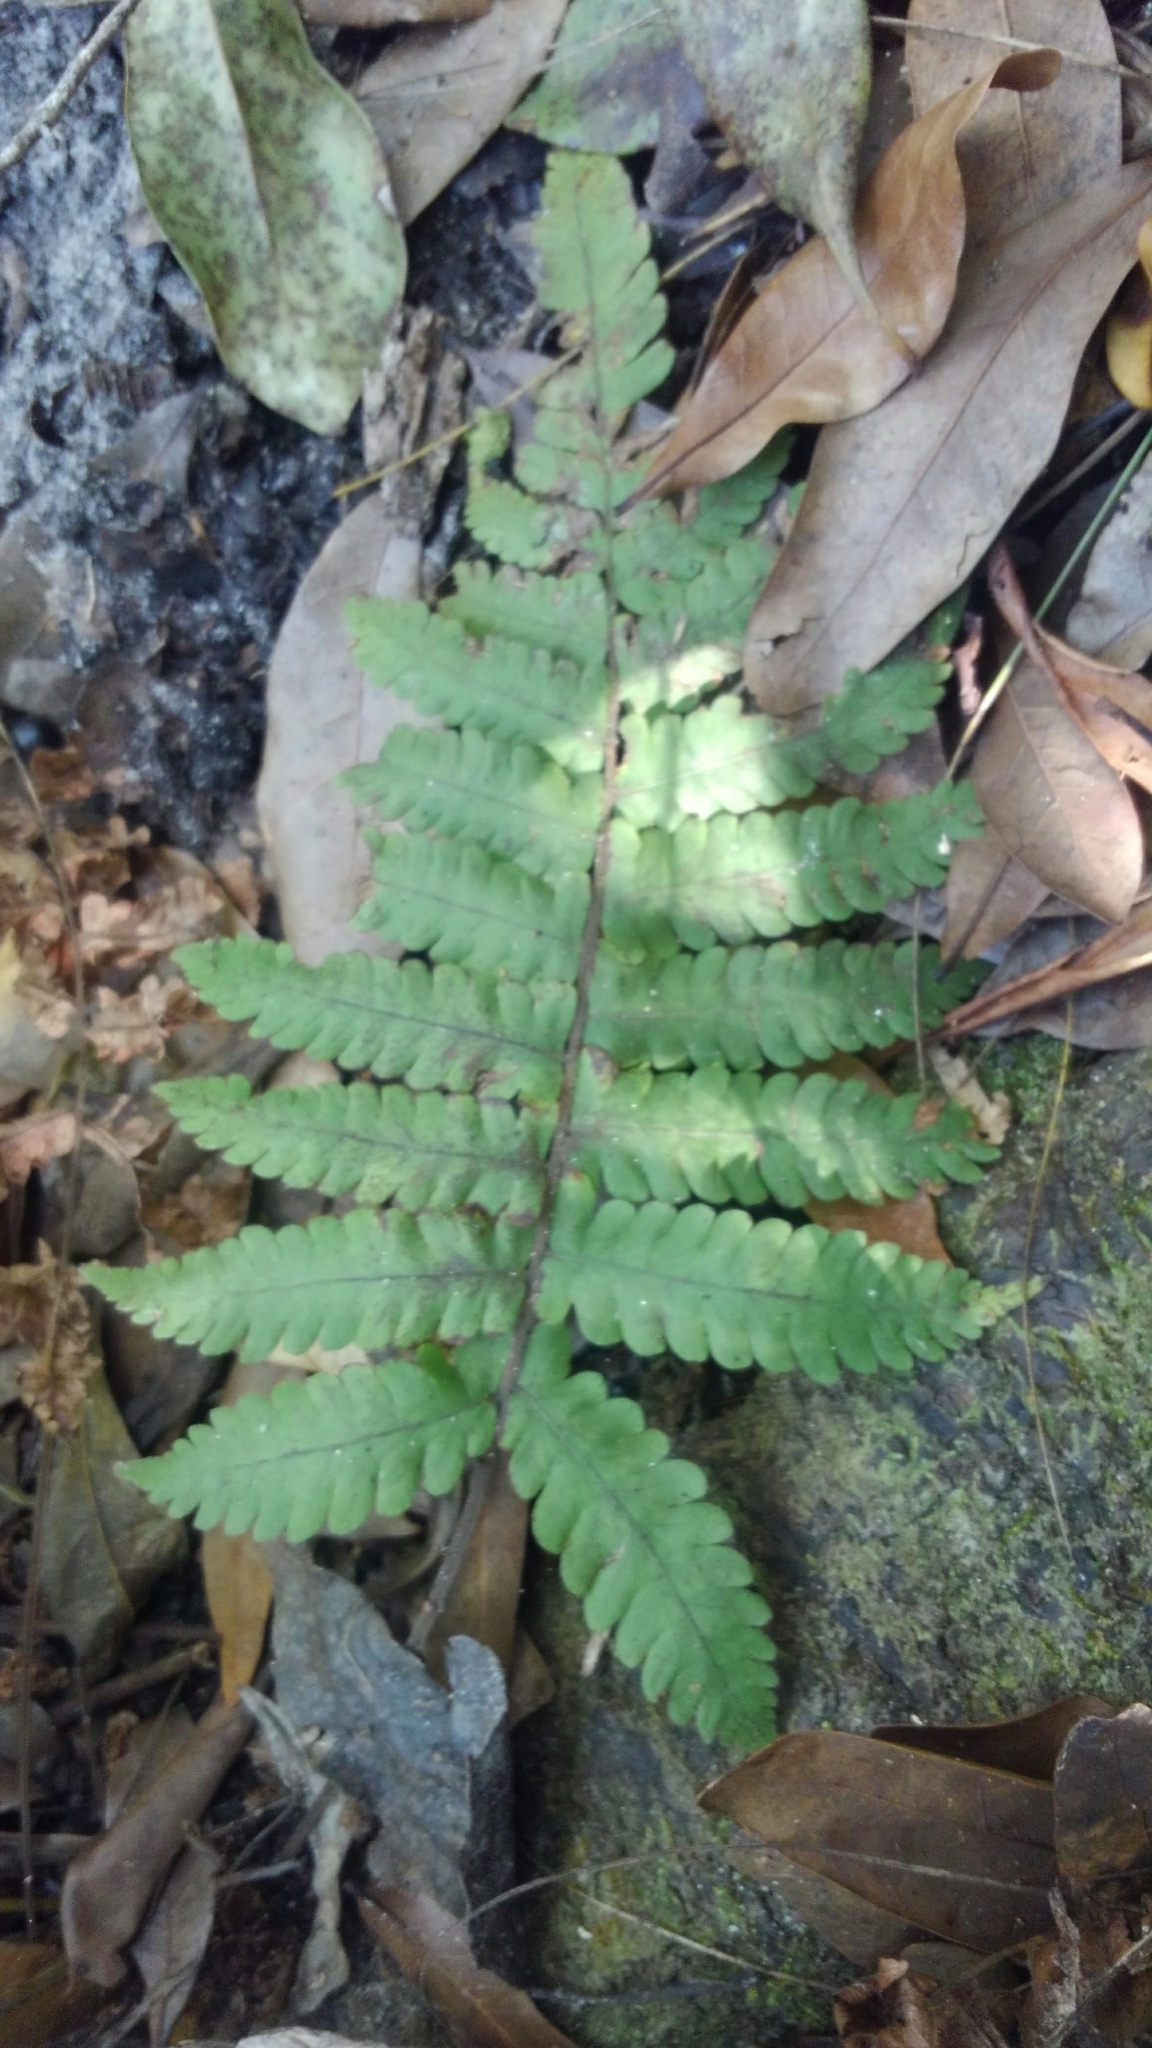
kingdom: Plantae
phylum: Tracheophyta
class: Polypodiopsida
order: Polypodiales
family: Thelypteridaceae
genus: Christella
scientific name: Christella dentata
